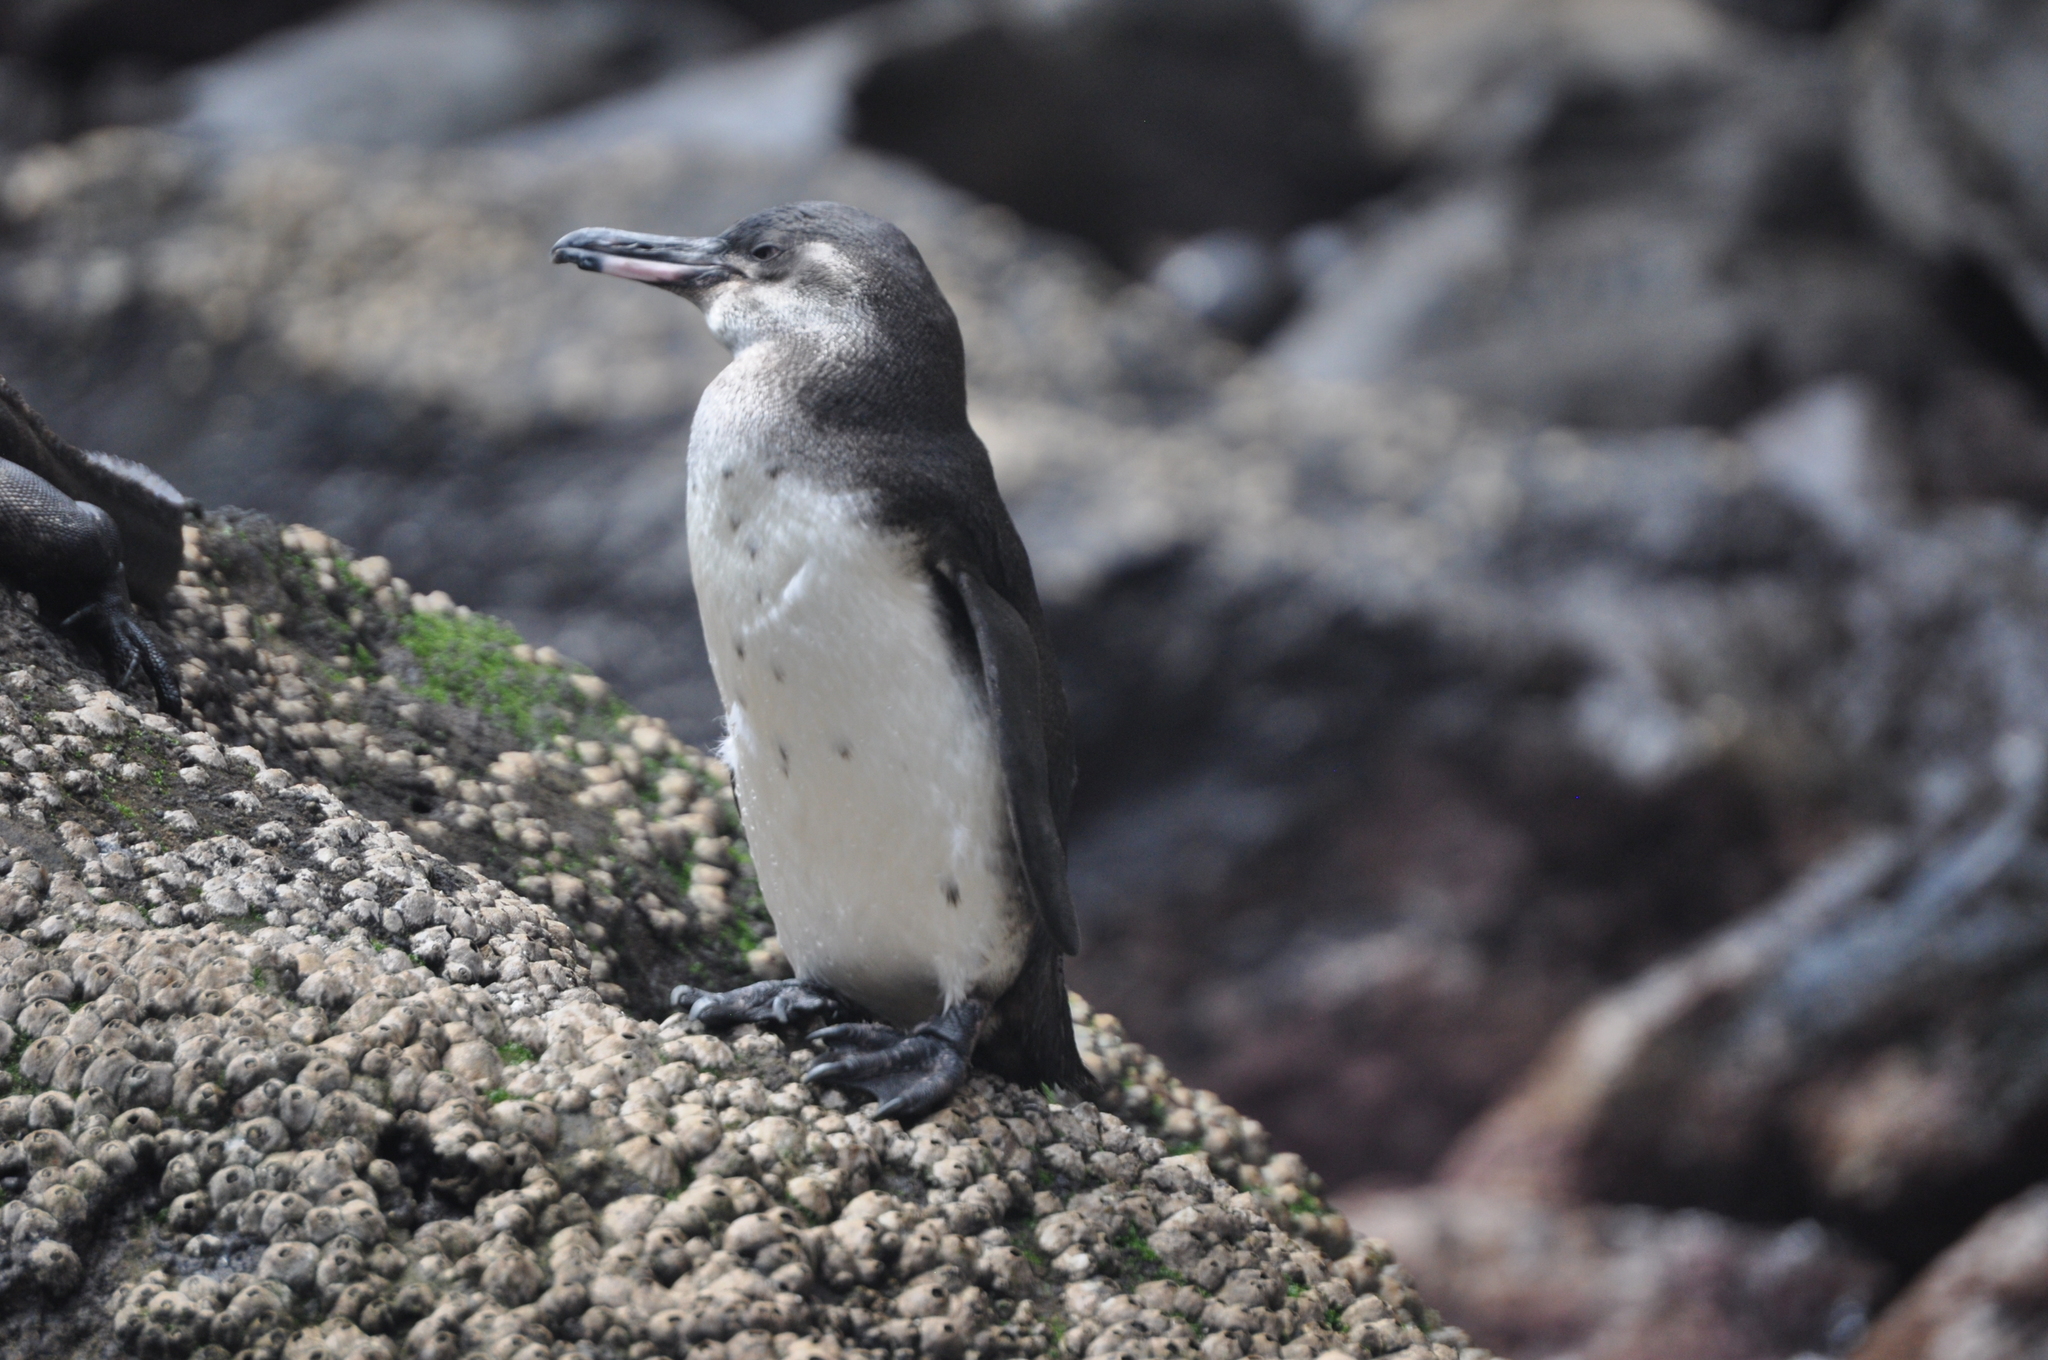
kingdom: Animalia
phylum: Chordata
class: Aves
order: Sphenisciformes
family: Spheniscidae
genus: Spheniscus
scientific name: Spheniscus mendiculus
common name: Galapagos penguin
